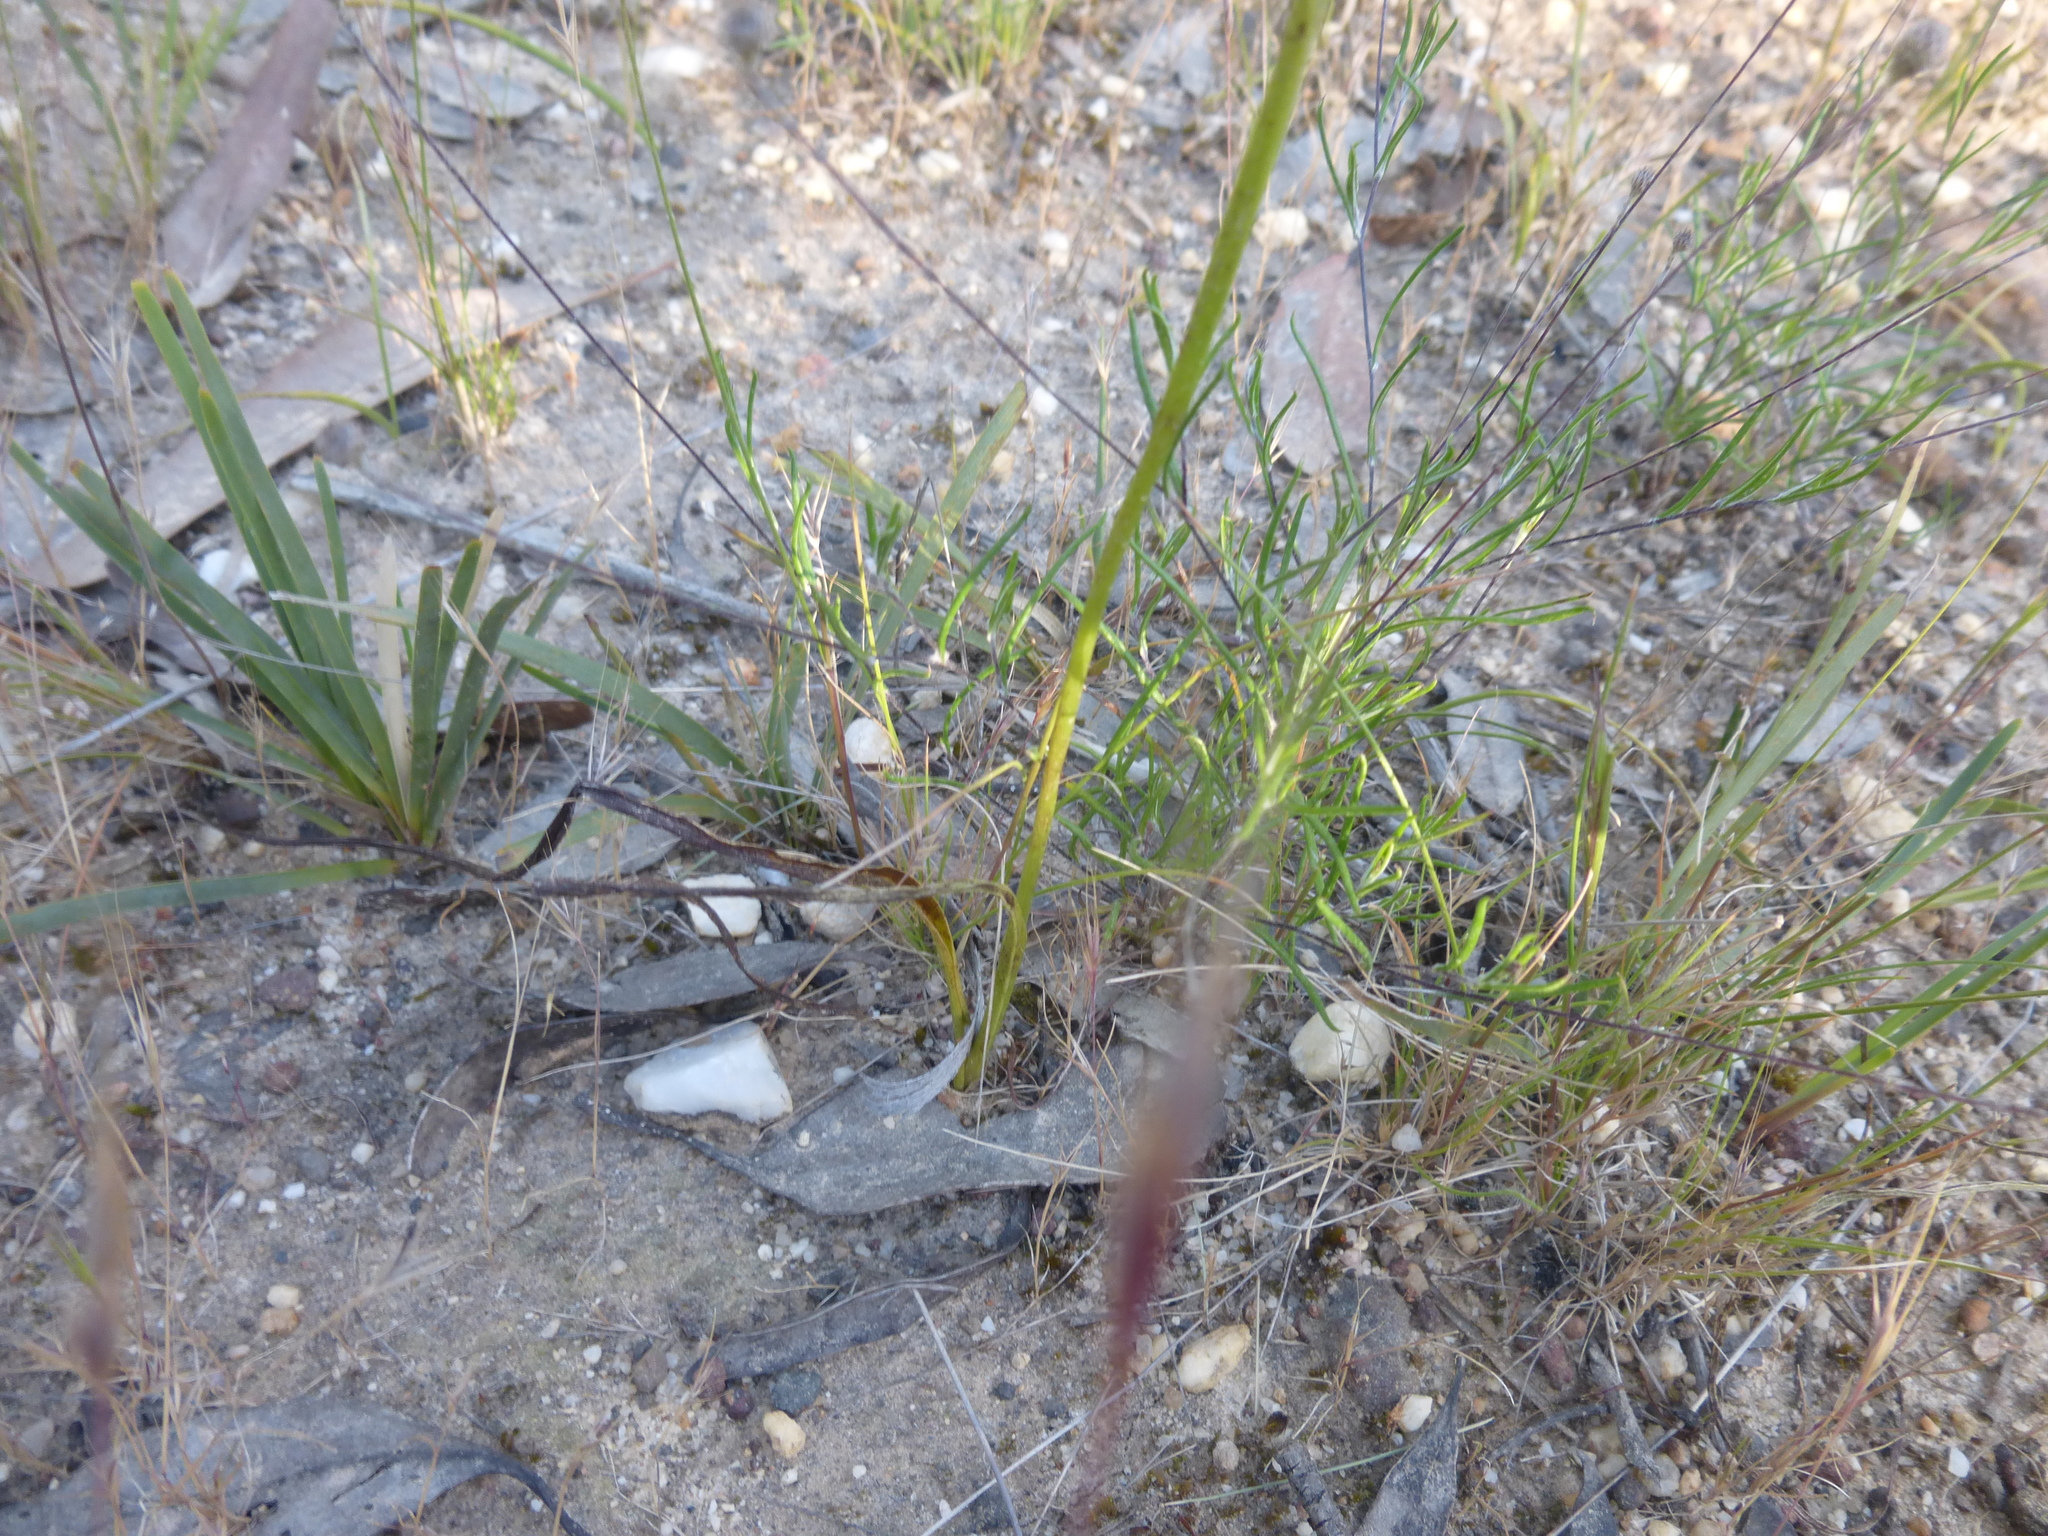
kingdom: Plantae
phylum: Tracheophyta
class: Liliopsida
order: Asparagales
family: Orchidaceae
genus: Diuris
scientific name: Diuris sulphurea
